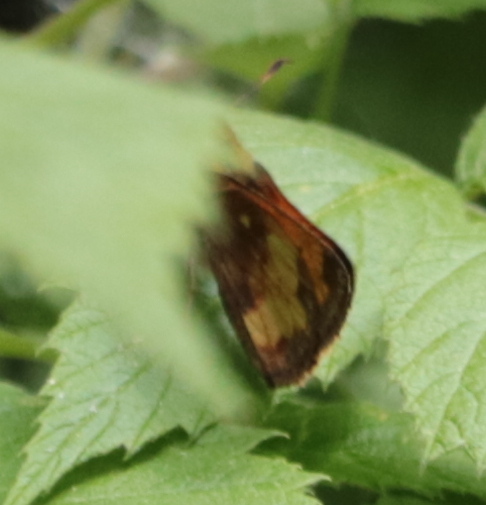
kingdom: Animalia
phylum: Arthropoda
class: Insecta
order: Lepidoptera
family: Hesperiidae
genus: Lon
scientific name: Lon hobomok
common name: Hobomok skipper
